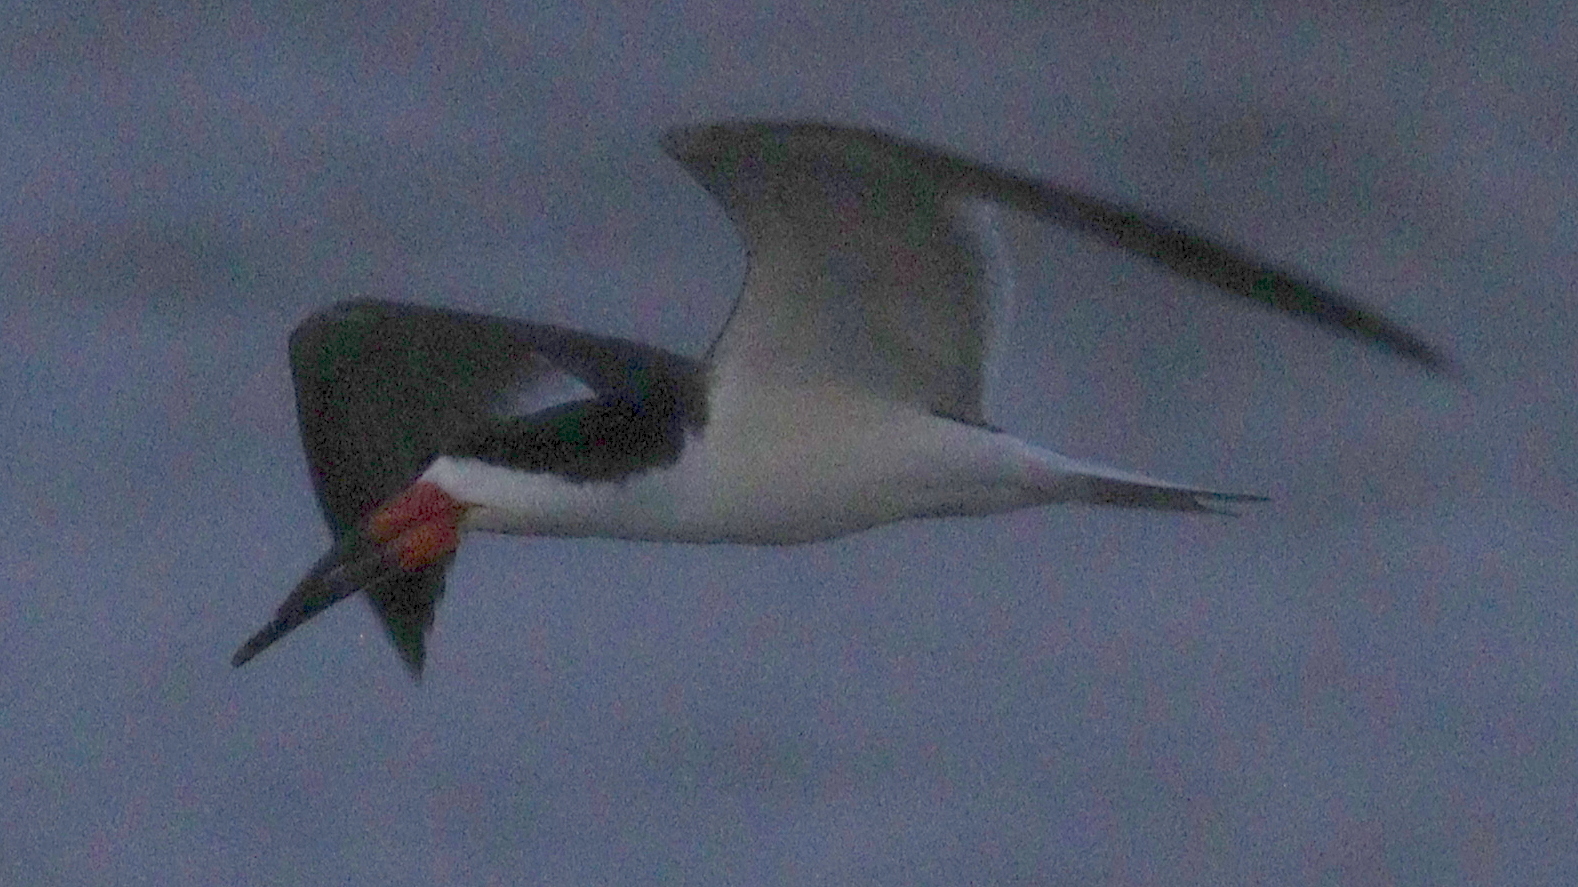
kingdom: Animalia
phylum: Chordata
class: Aves
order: Charadriiformes
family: Laridae
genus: Rynchops
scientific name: Rynchops niger
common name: Black skimmer
